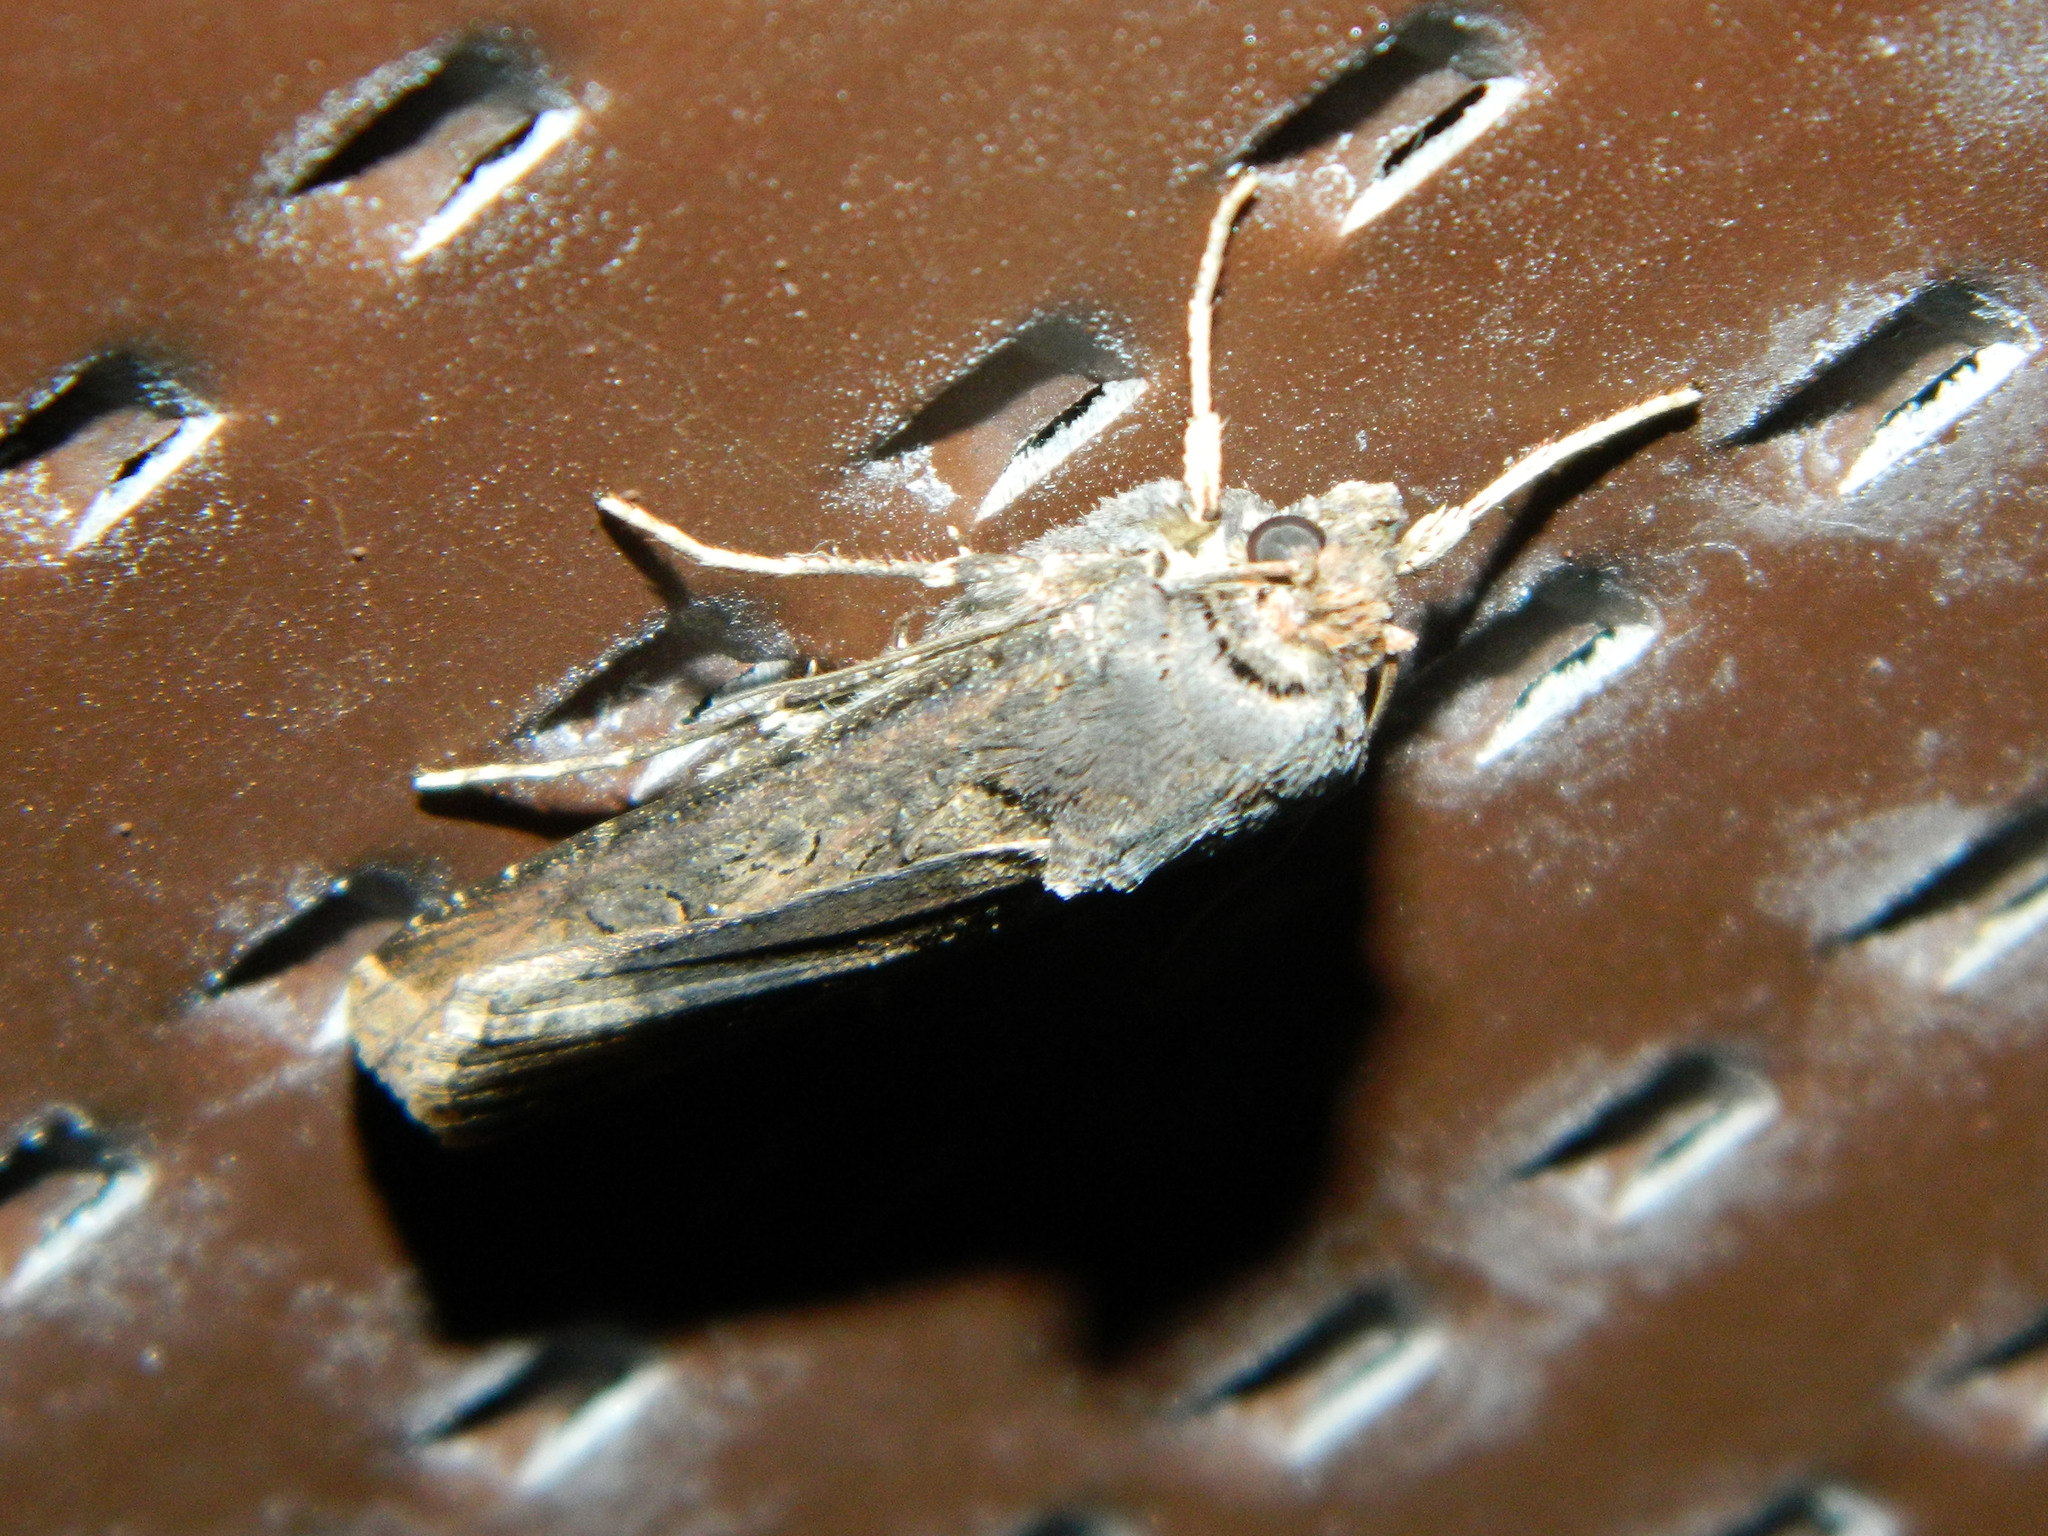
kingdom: Animalia
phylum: Arthropoda
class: Insecta
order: Lepidoptera
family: Noctuidae
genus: Agrotis
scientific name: Agrotis ipsilon
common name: Dark sword-grass
